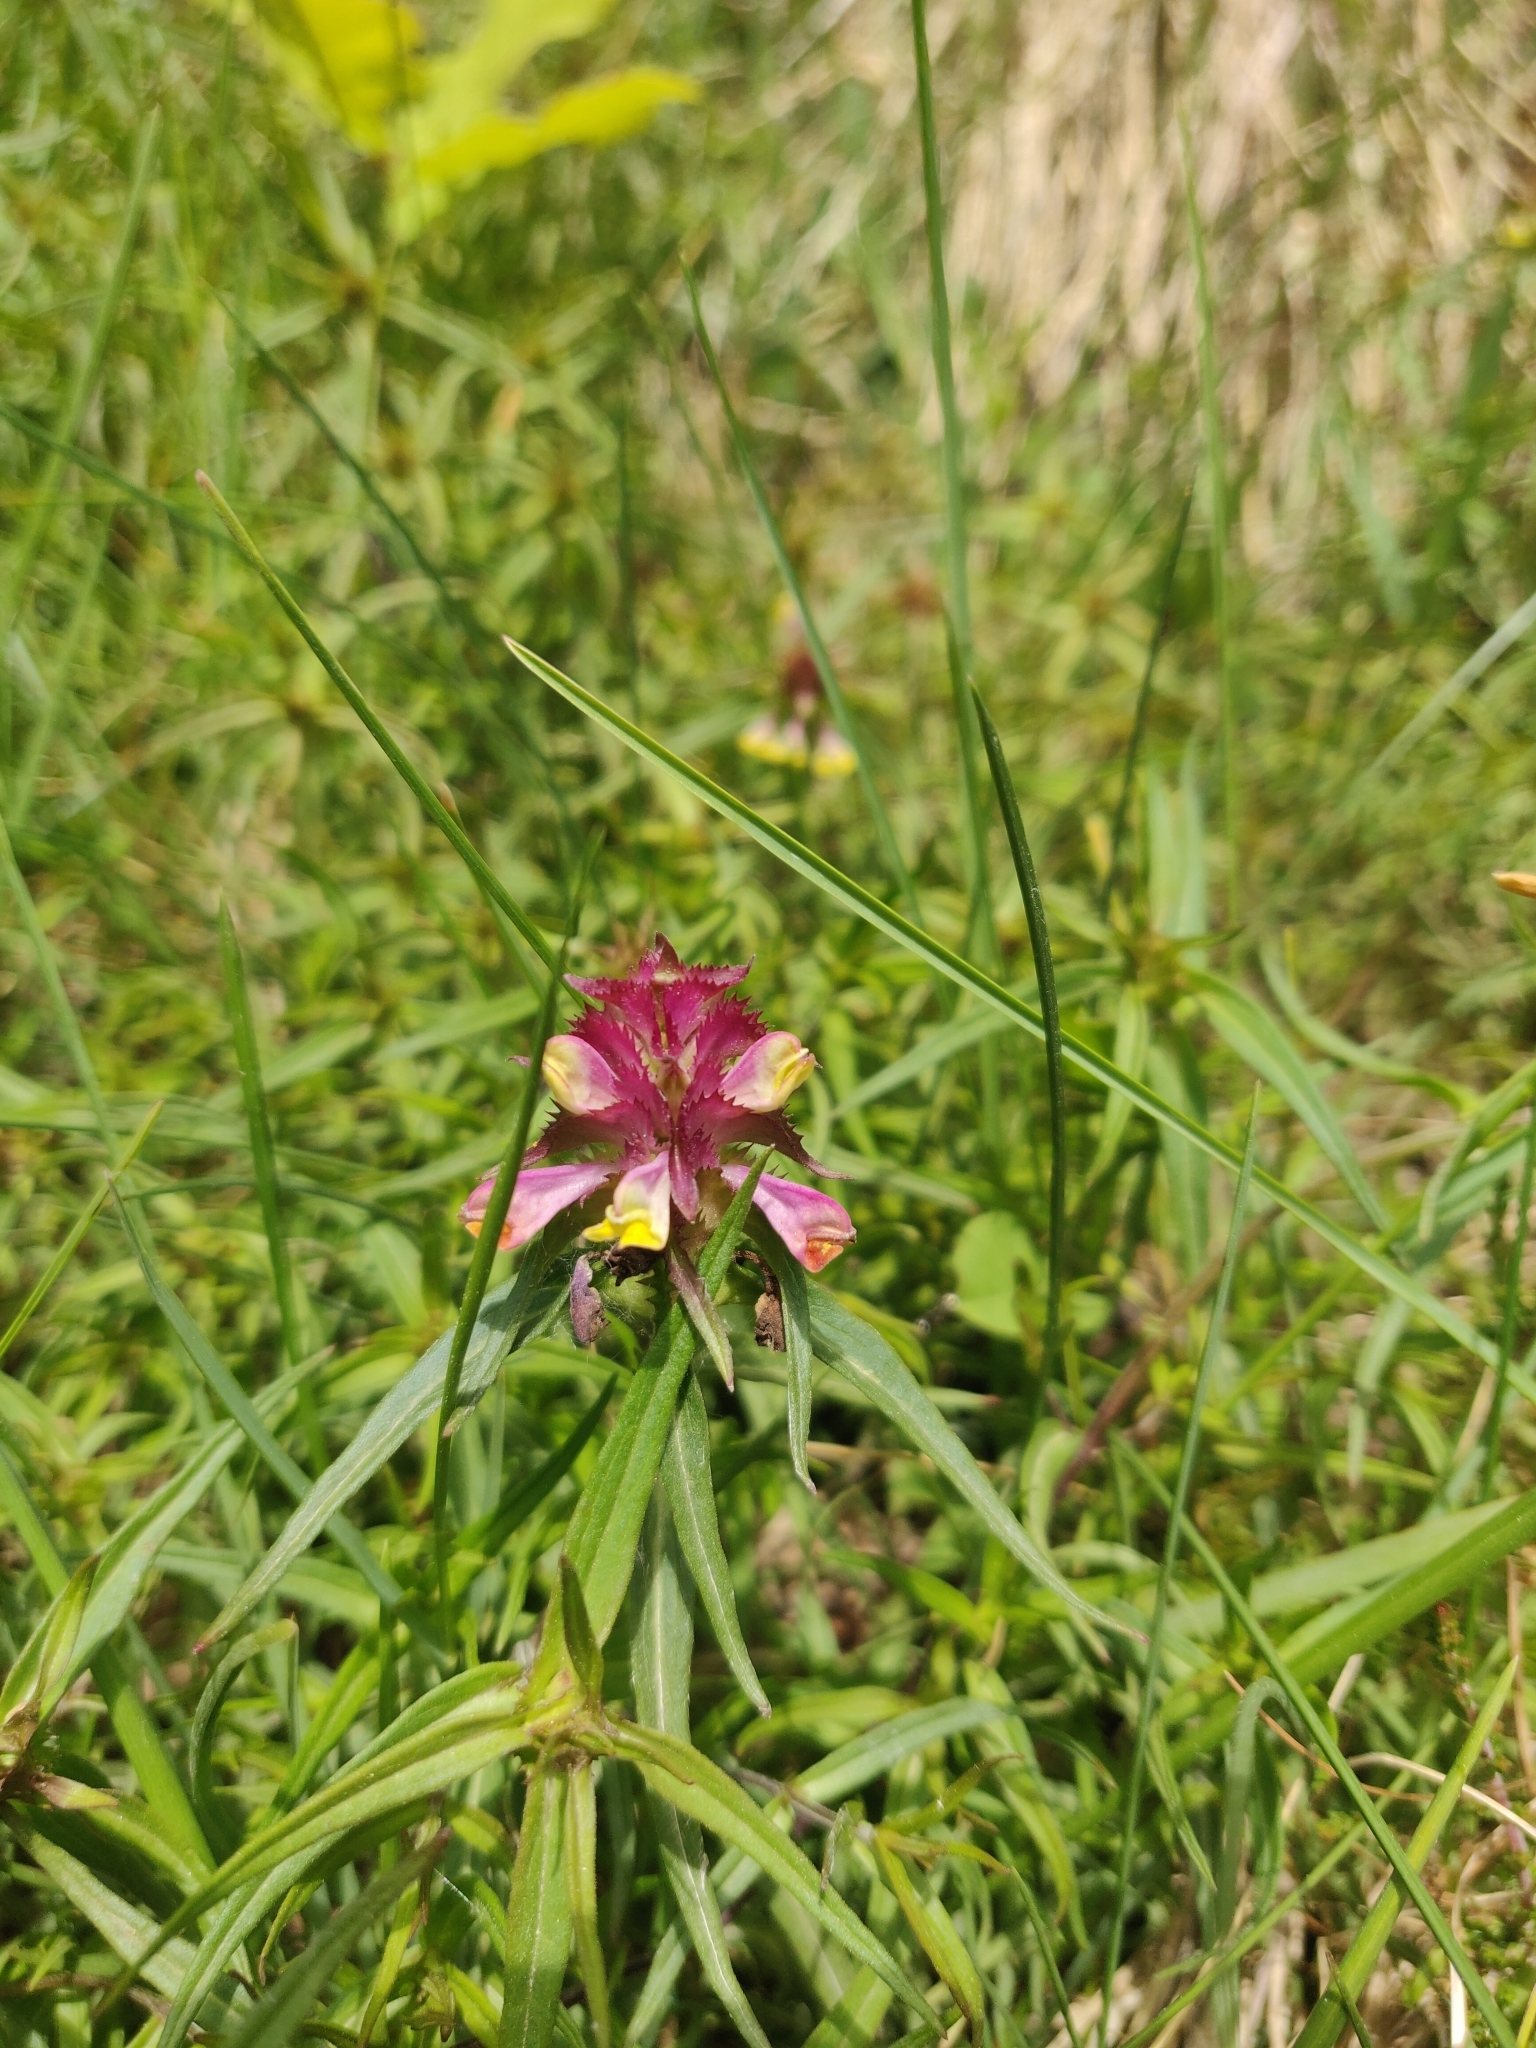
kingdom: Plantae
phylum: Tracheophyta
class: Magnoliopsida
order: Lamiales
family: Orobanchaceae
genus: Melampyrum
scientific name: Melampyrum cristatum
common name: Crested cow-wheat
